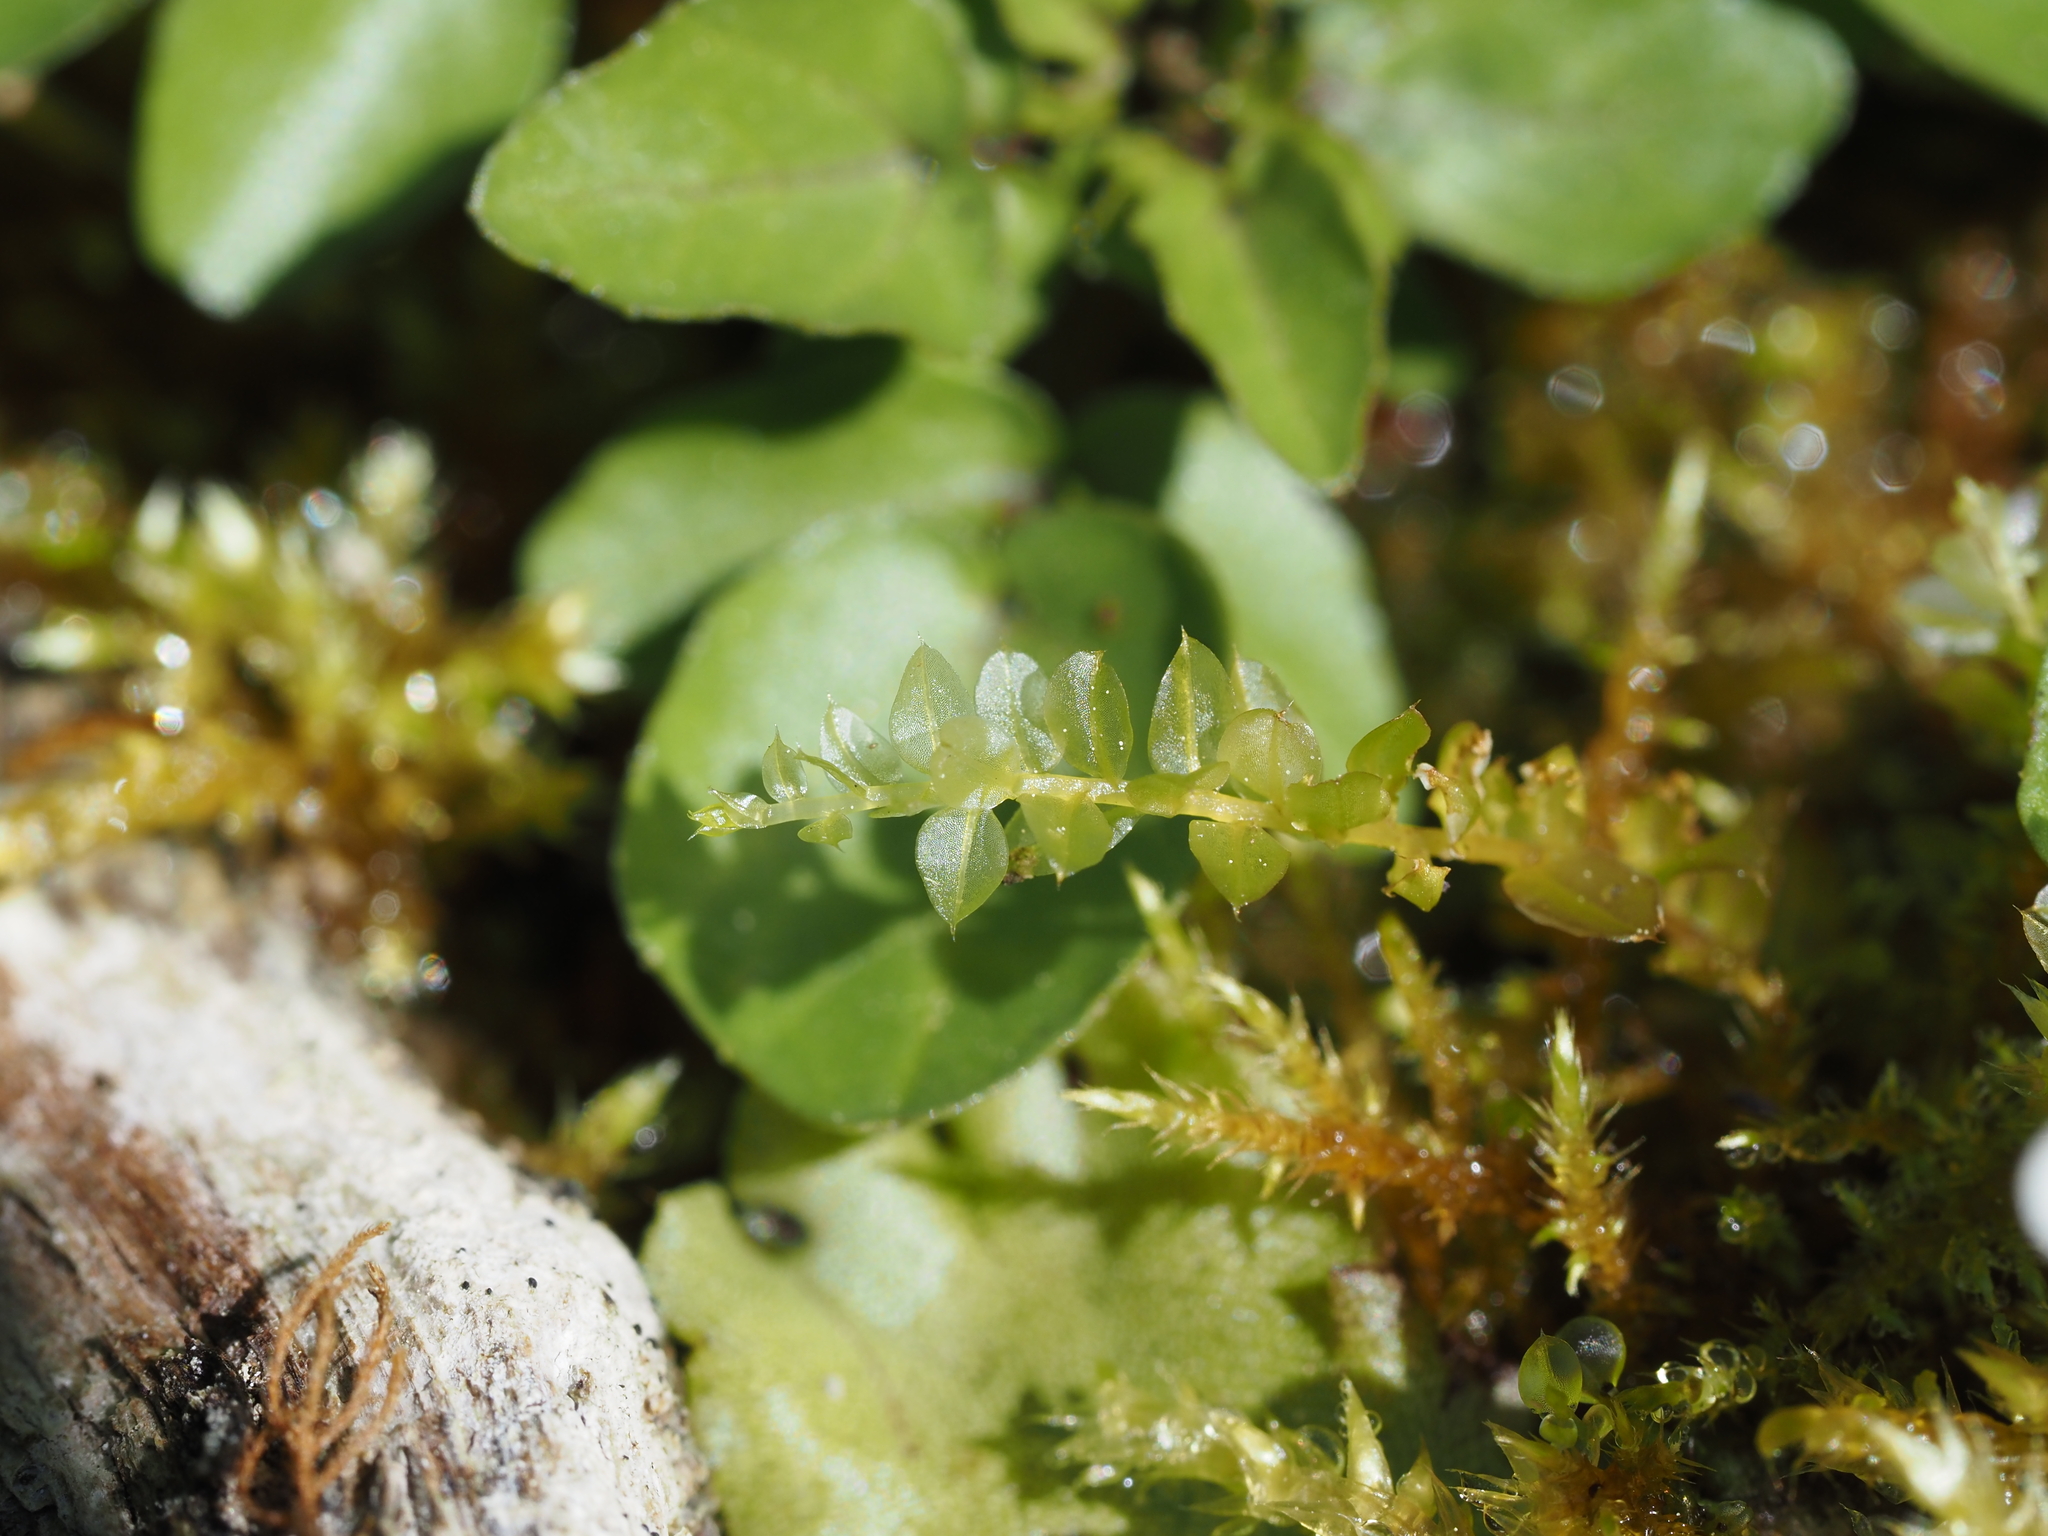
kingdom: Plantae
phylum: Bryophyta
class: Bryopsida
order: Bryales
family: Mniaceae
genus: Plagiomnium
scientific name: Plagiomnium cuspidatum
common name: Woodsy leafy moss
